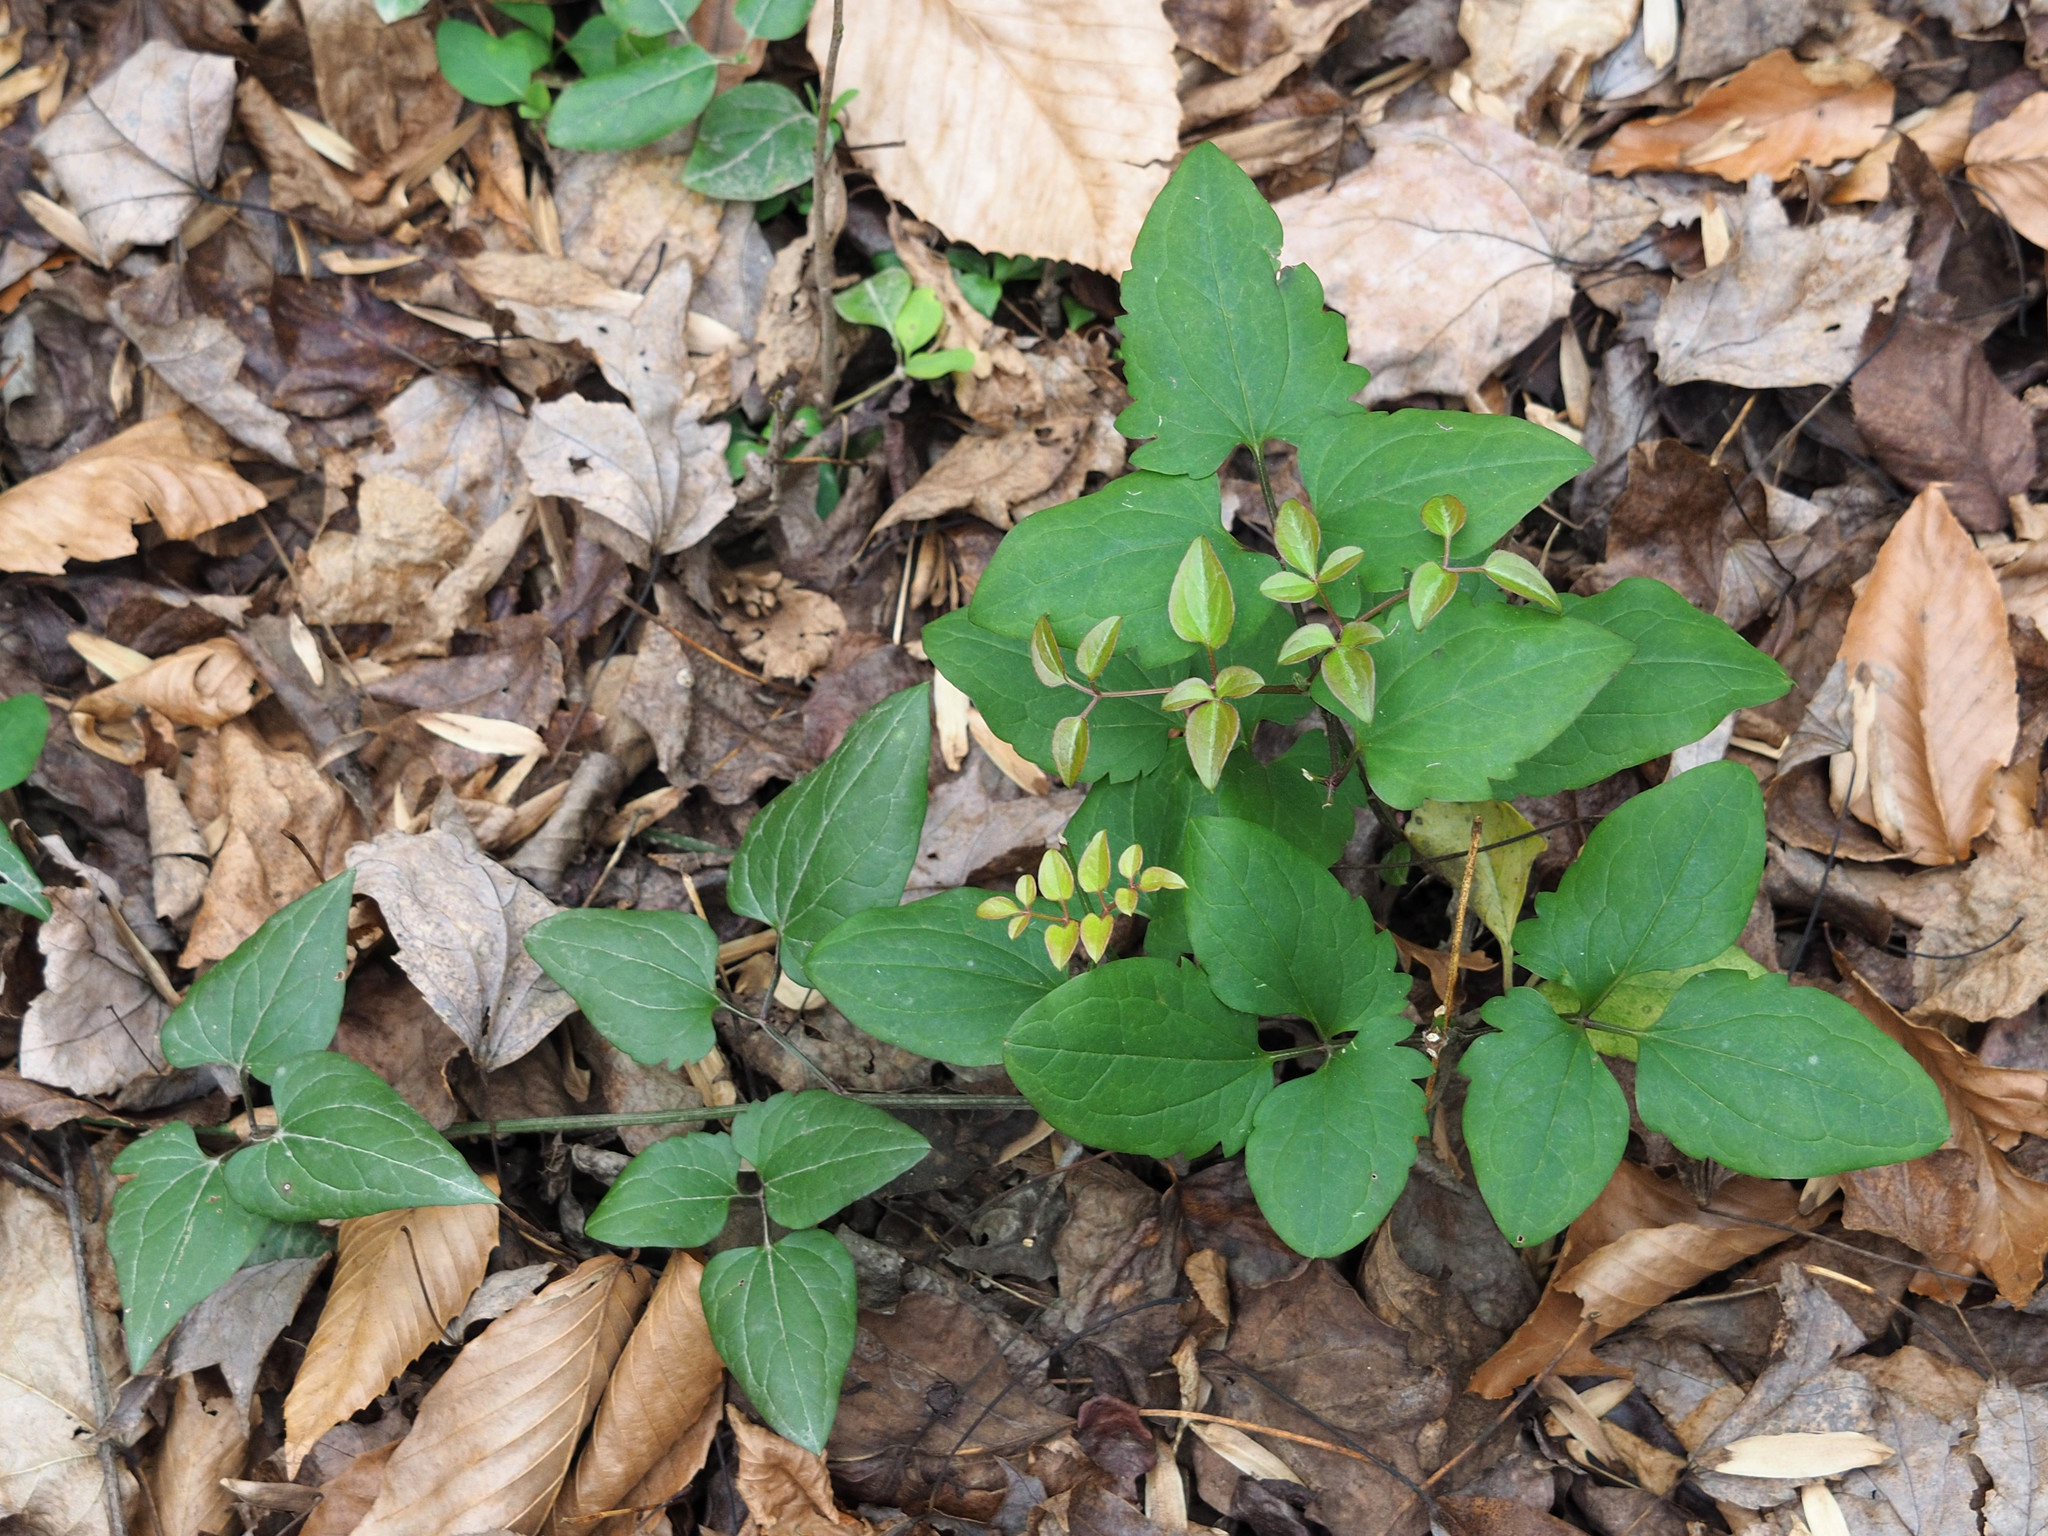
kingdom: Plantae
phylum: Tracheophyta
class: Magnoliopsida
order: Ranunculales
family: Ranunculaceae
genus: Clematis
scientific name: Clematis terniflora
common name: Sweet autumn clematis
